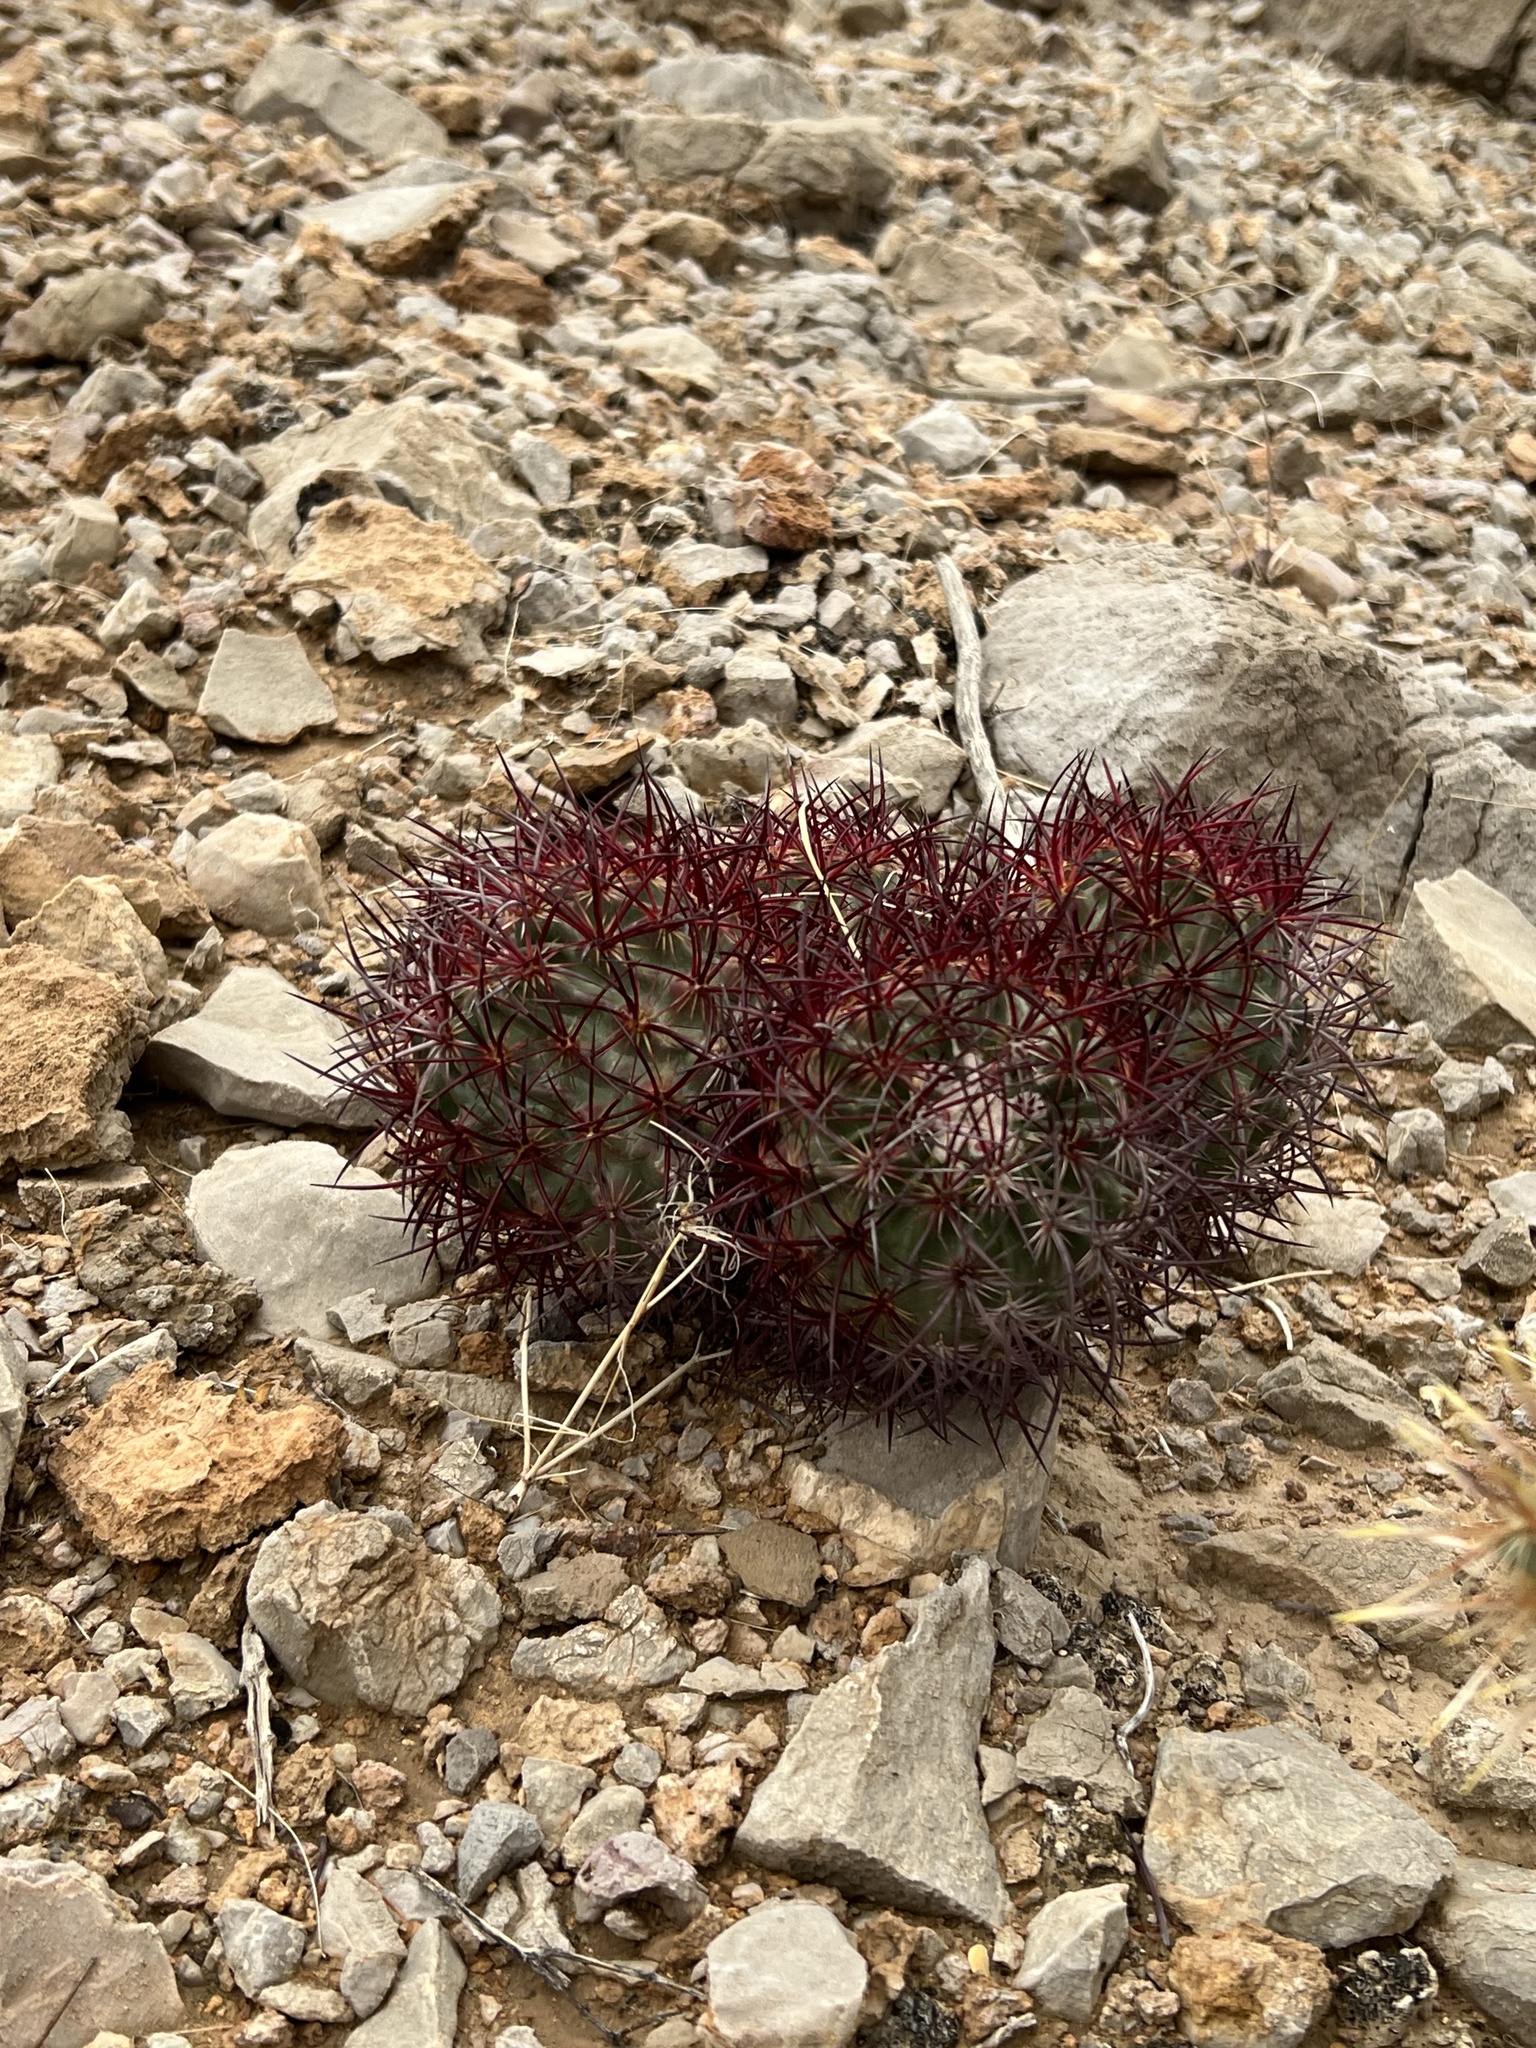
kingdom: Plantae
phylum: Tracheophyta
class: Magnoliopsida
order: Caryophyllales
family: Cactaceae
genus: Sclerocactus
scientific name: Sclerocactus johnsonii
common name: Eight-spine fishhook cactus
